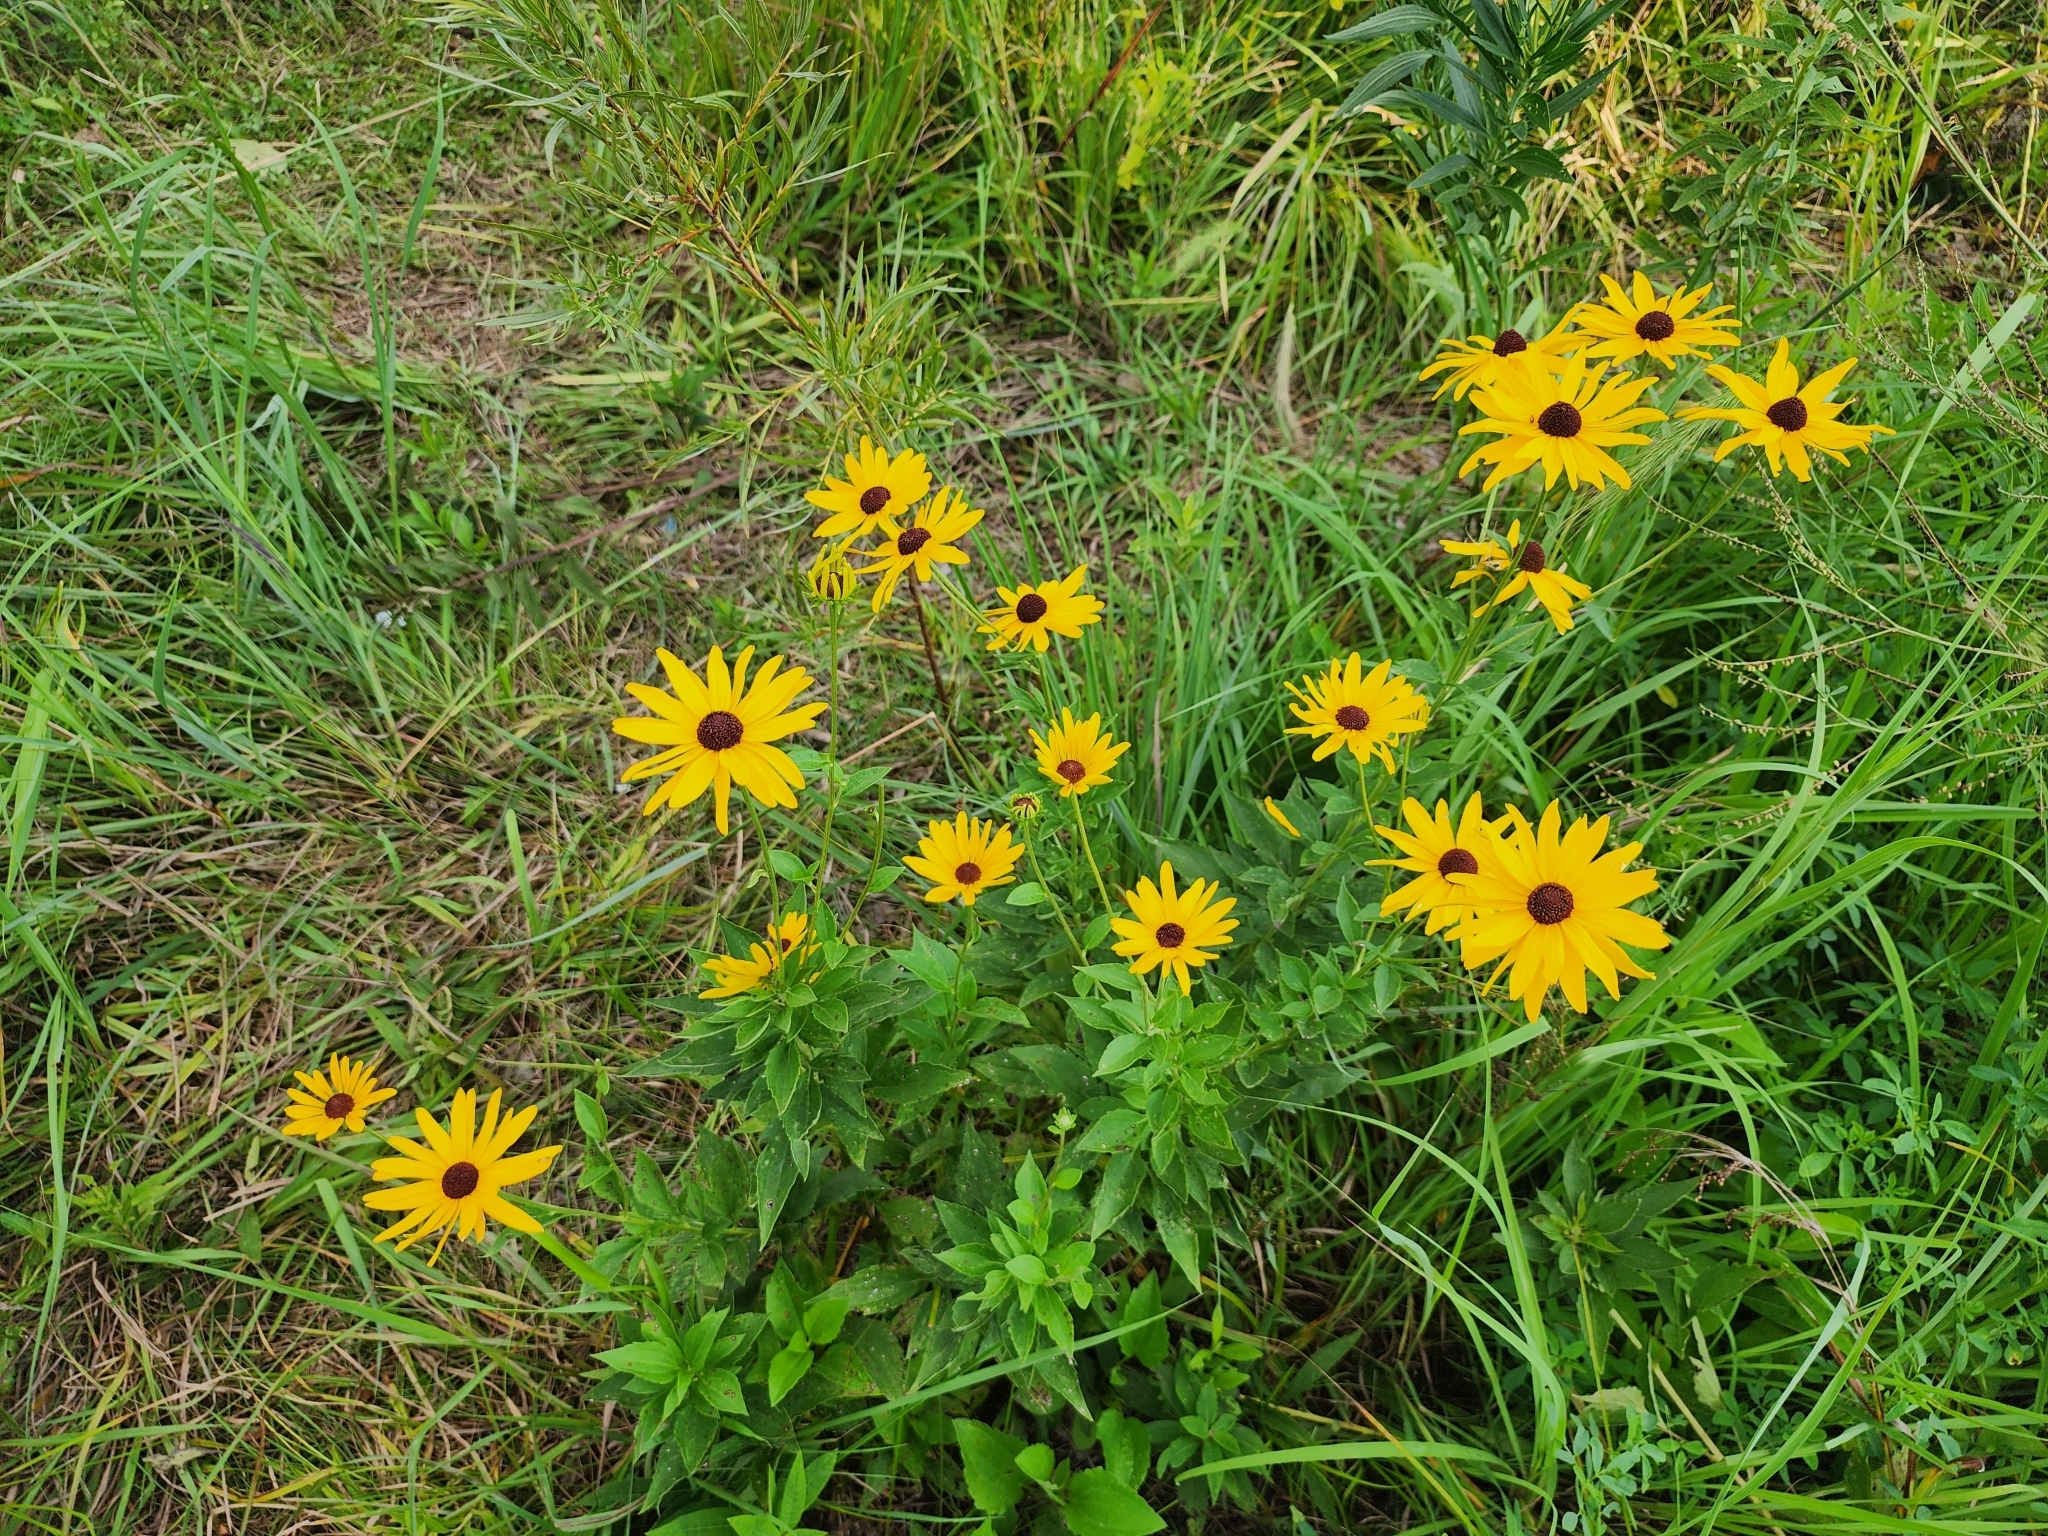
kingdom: Plantae
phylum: Tracheophyta
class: Magnoliopsida
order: Asterales
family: Asteraceae
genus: Rudbeckia
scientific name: Rudbeckia hirta
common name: Black-eyed-susan
